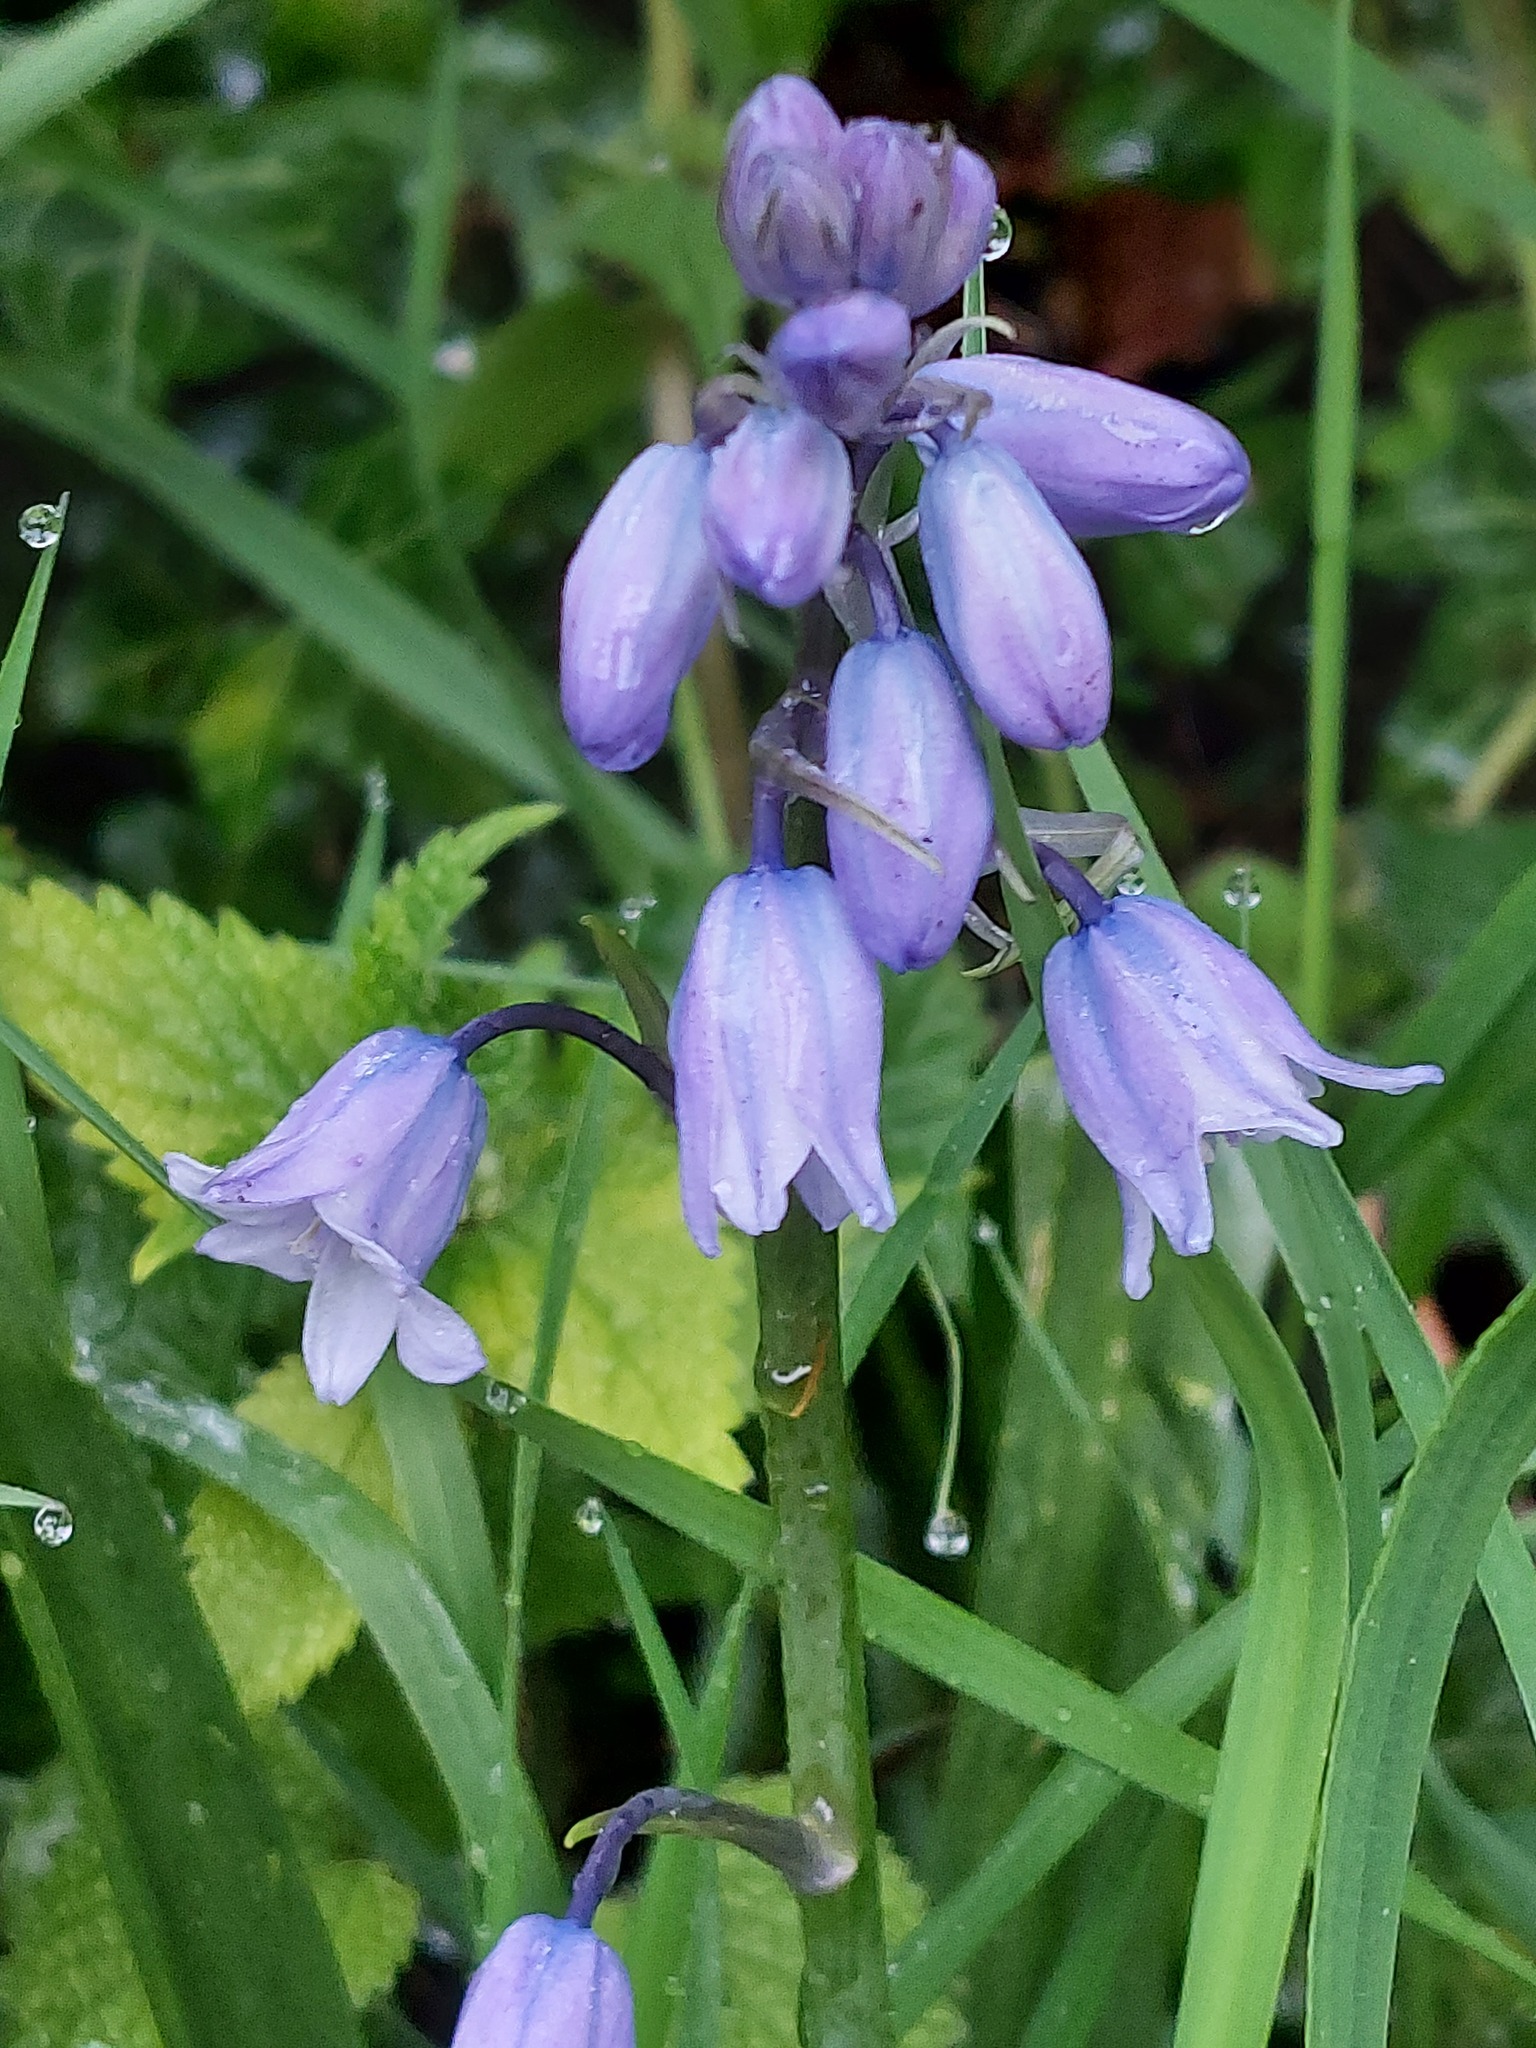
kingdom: Plantae
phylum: Tracheophyta
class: Liliopsida
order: Asparagales
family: Asparagaceae
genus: Hyacinthoides
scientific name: Hyacinthoides hispanica
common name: Spanish bluebell
